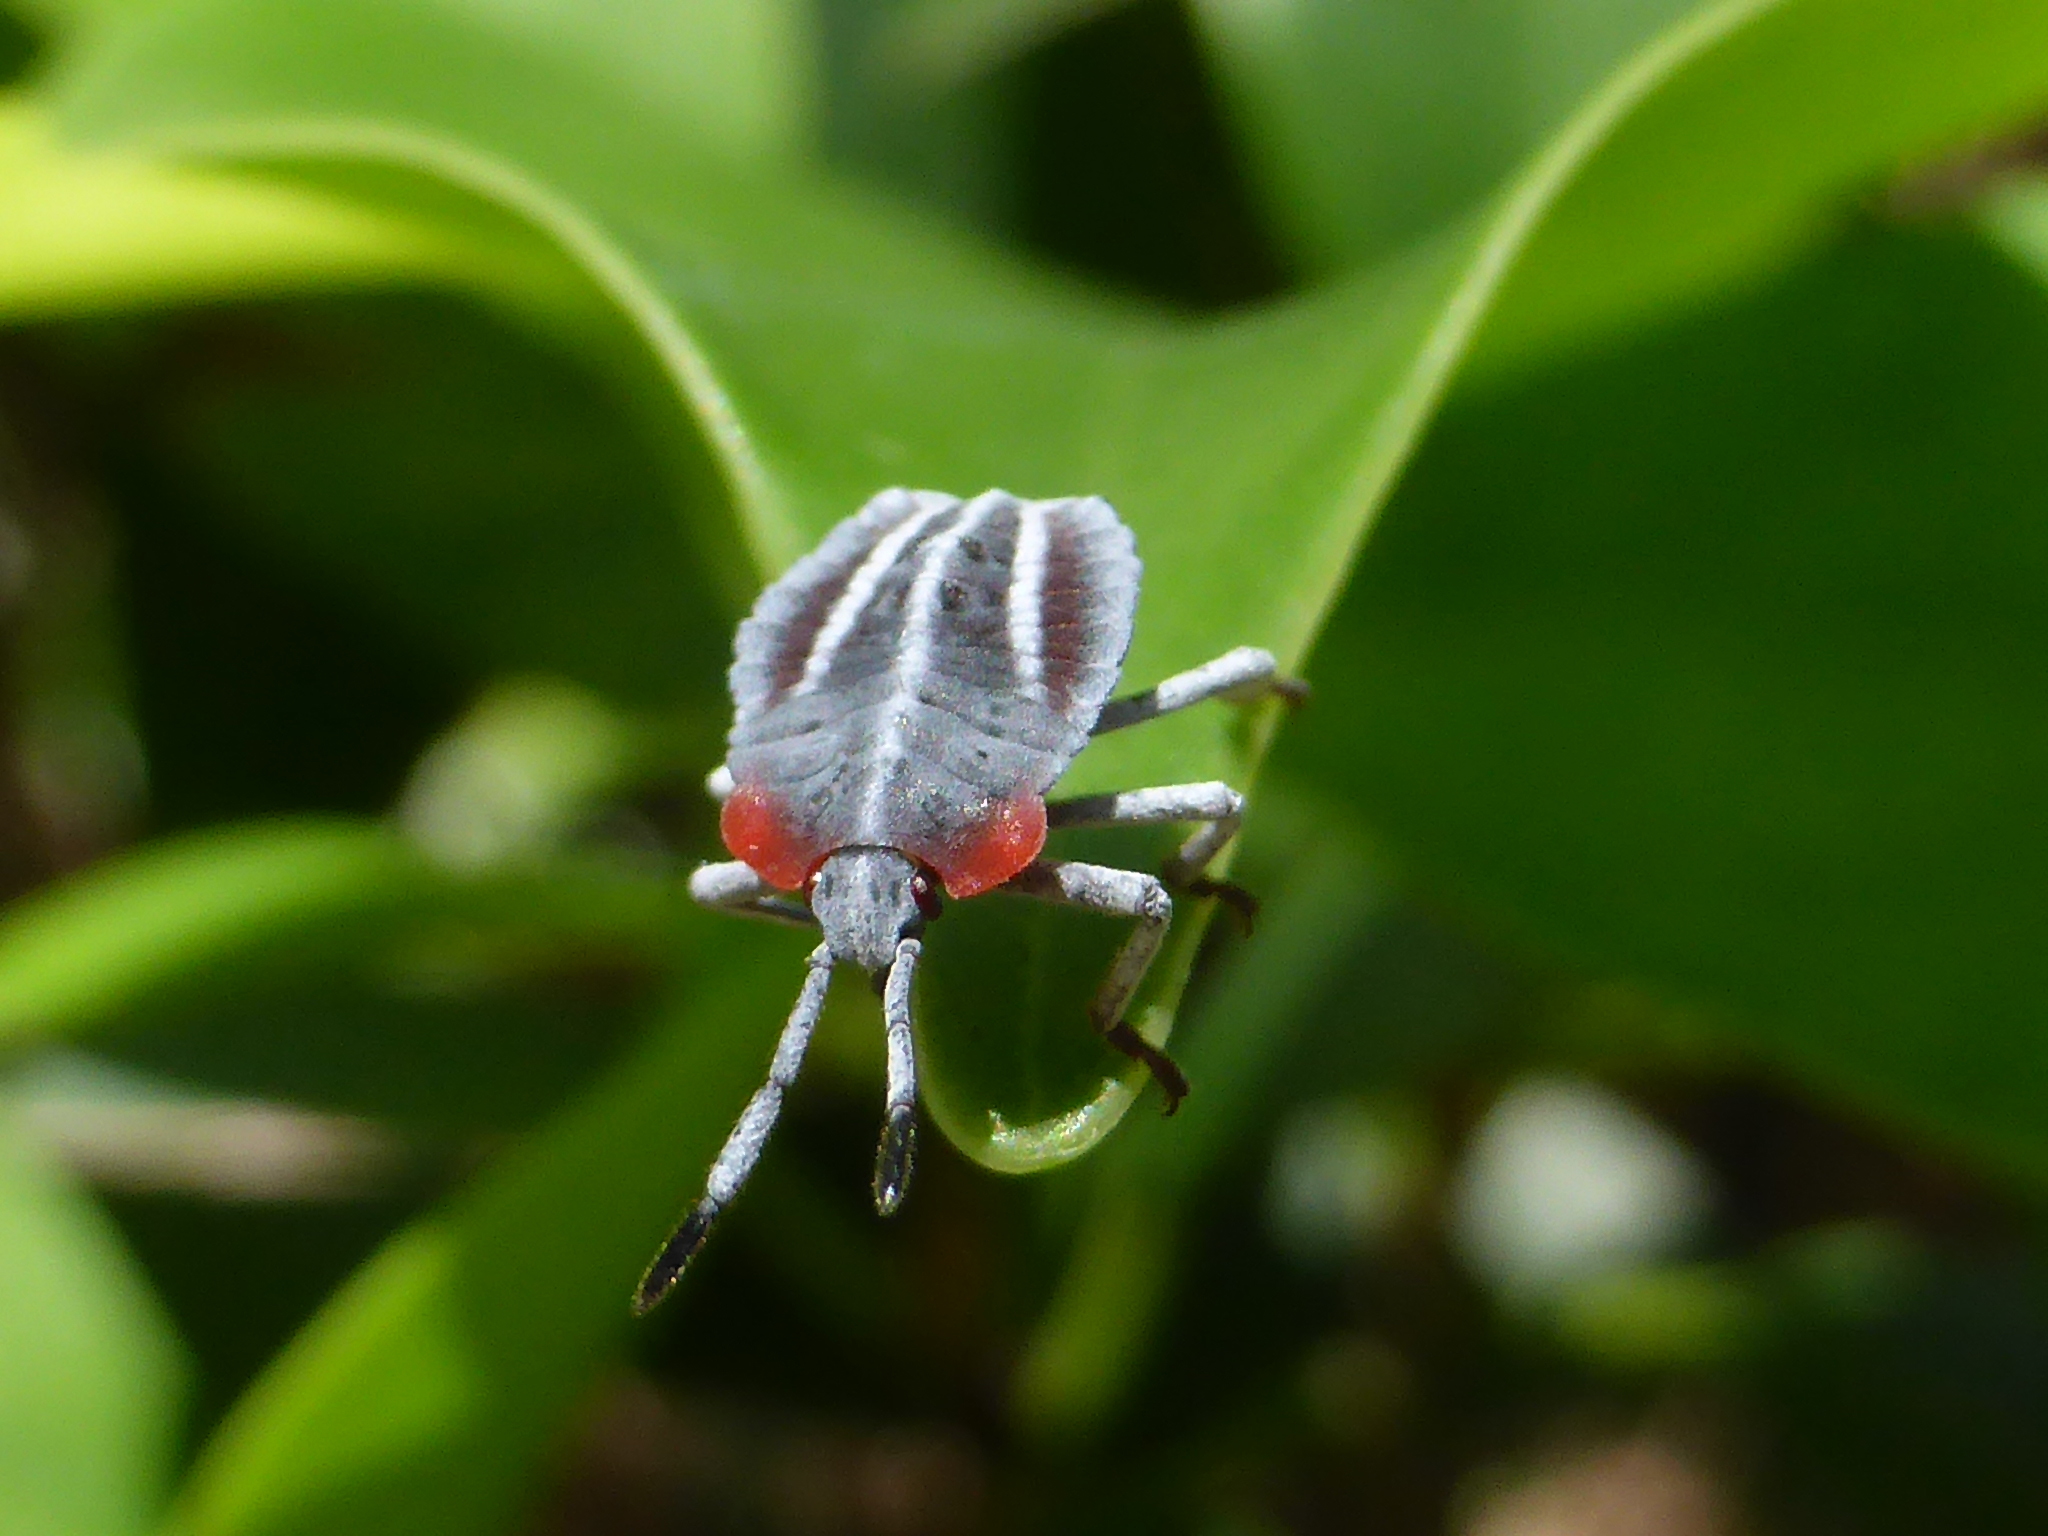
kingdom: Animalia
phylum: Arthropoda
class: Insecta
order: Hemiptera
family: Tessaratomidae
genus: Tessaratoma
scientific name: Tessaratoma papillosa
